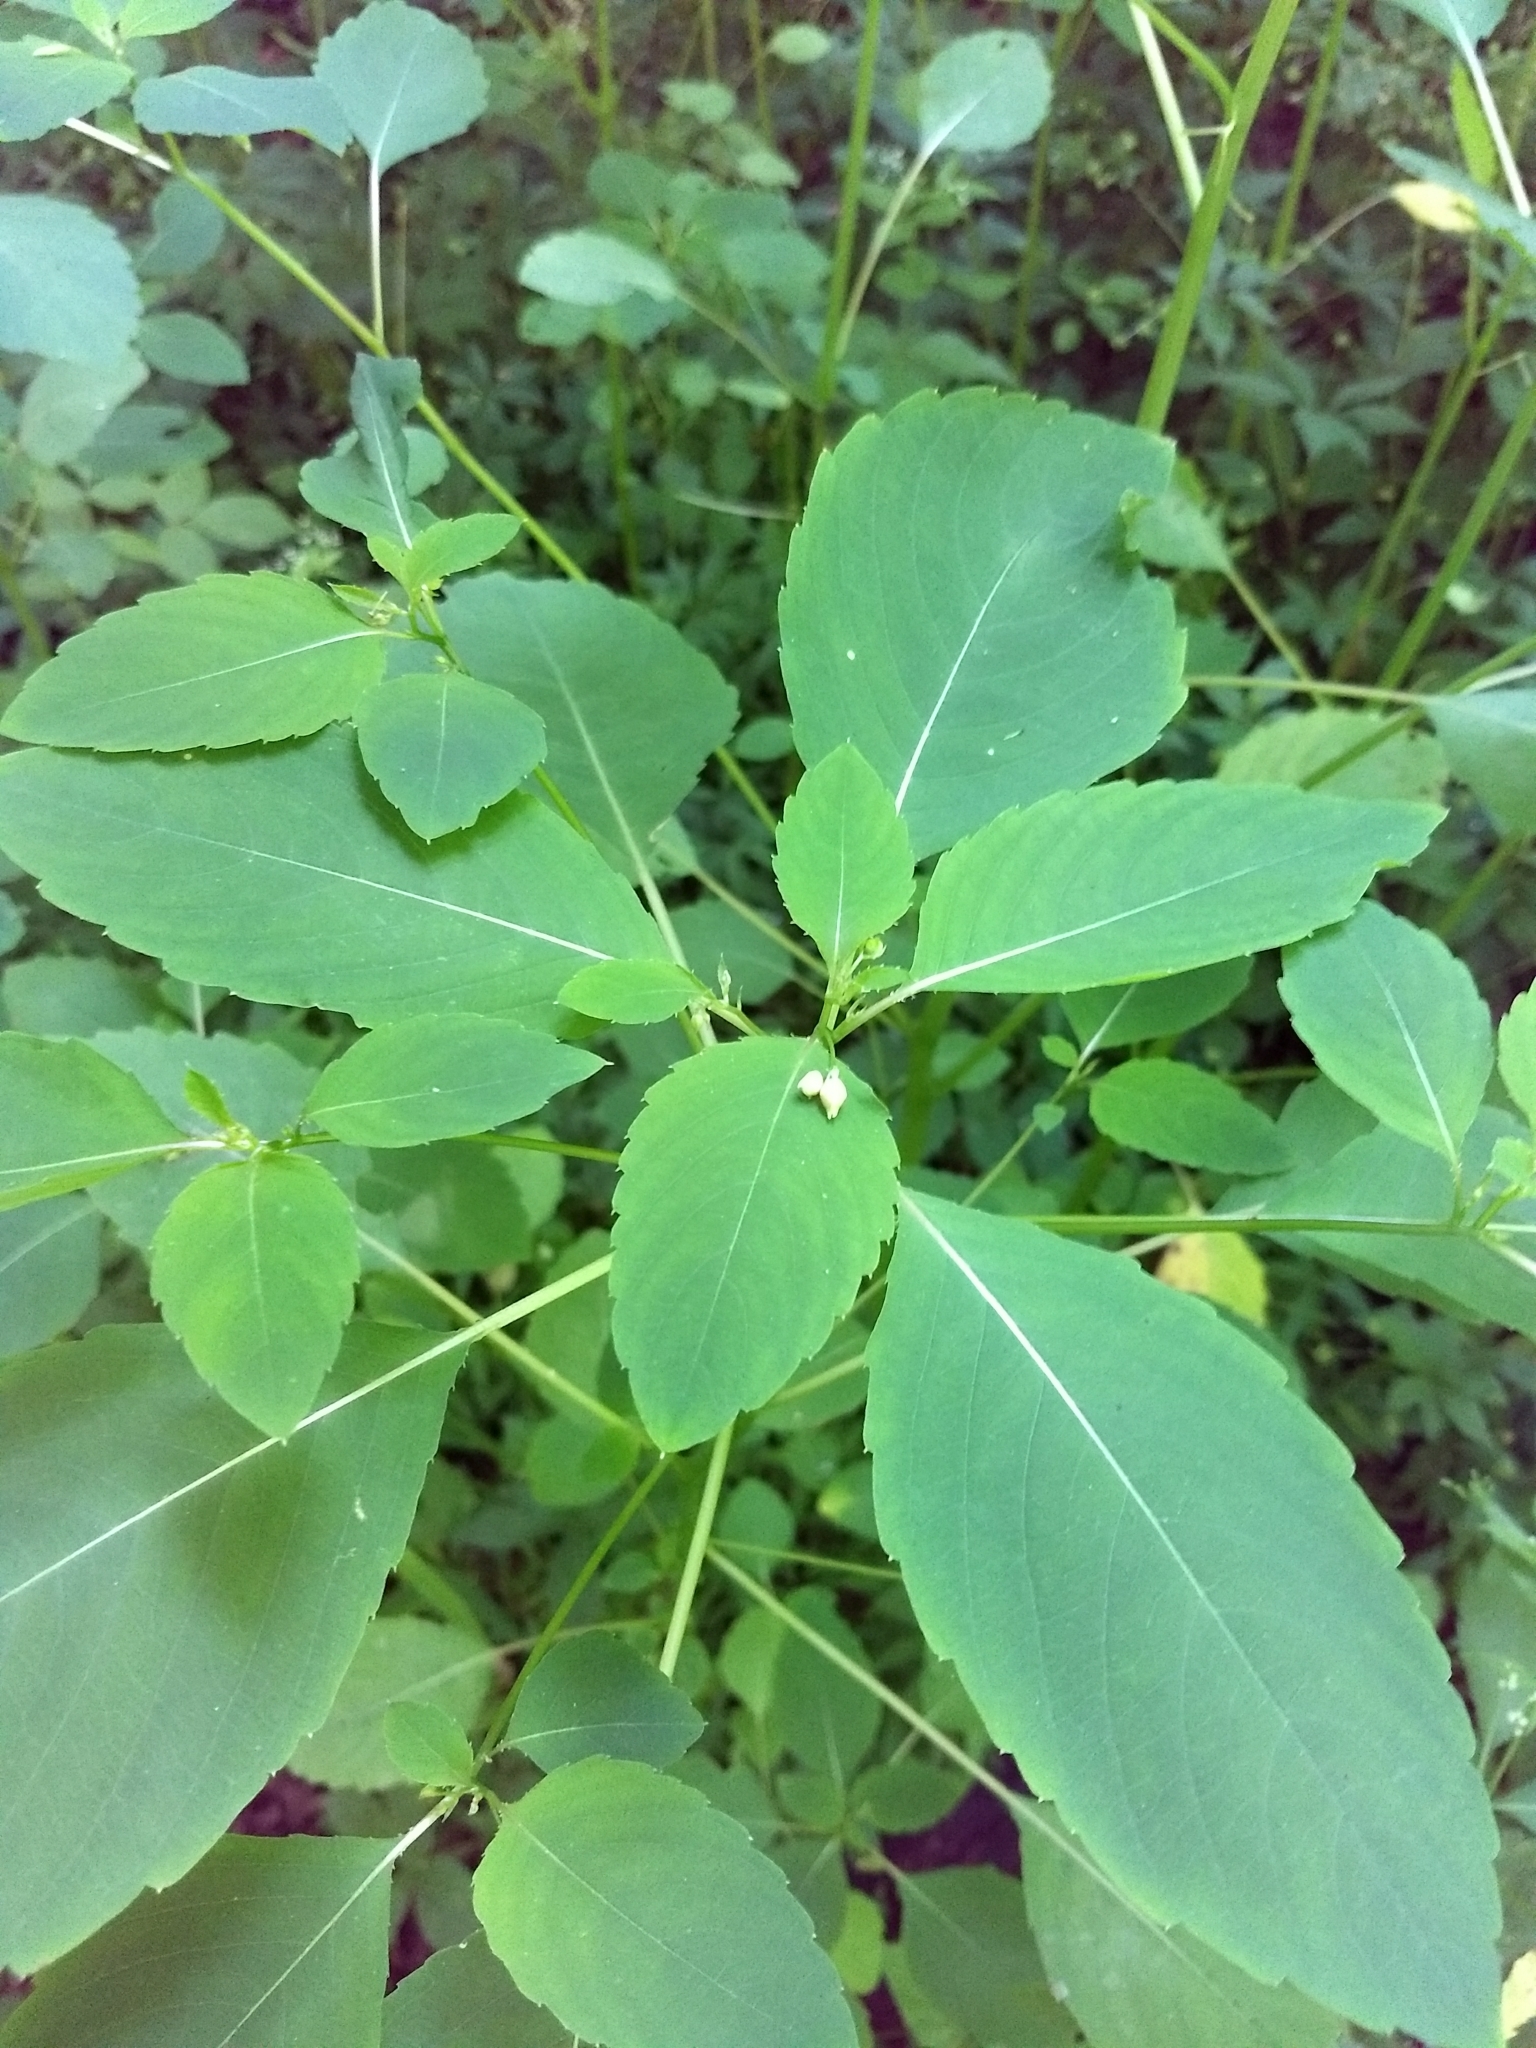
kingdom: Plantae
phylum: Tracheophyta
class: Magnoliopsida
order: Ericales
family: Balsaminaceae
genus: Impatiens
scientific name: Impatiens capensis
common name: Orange balsam
